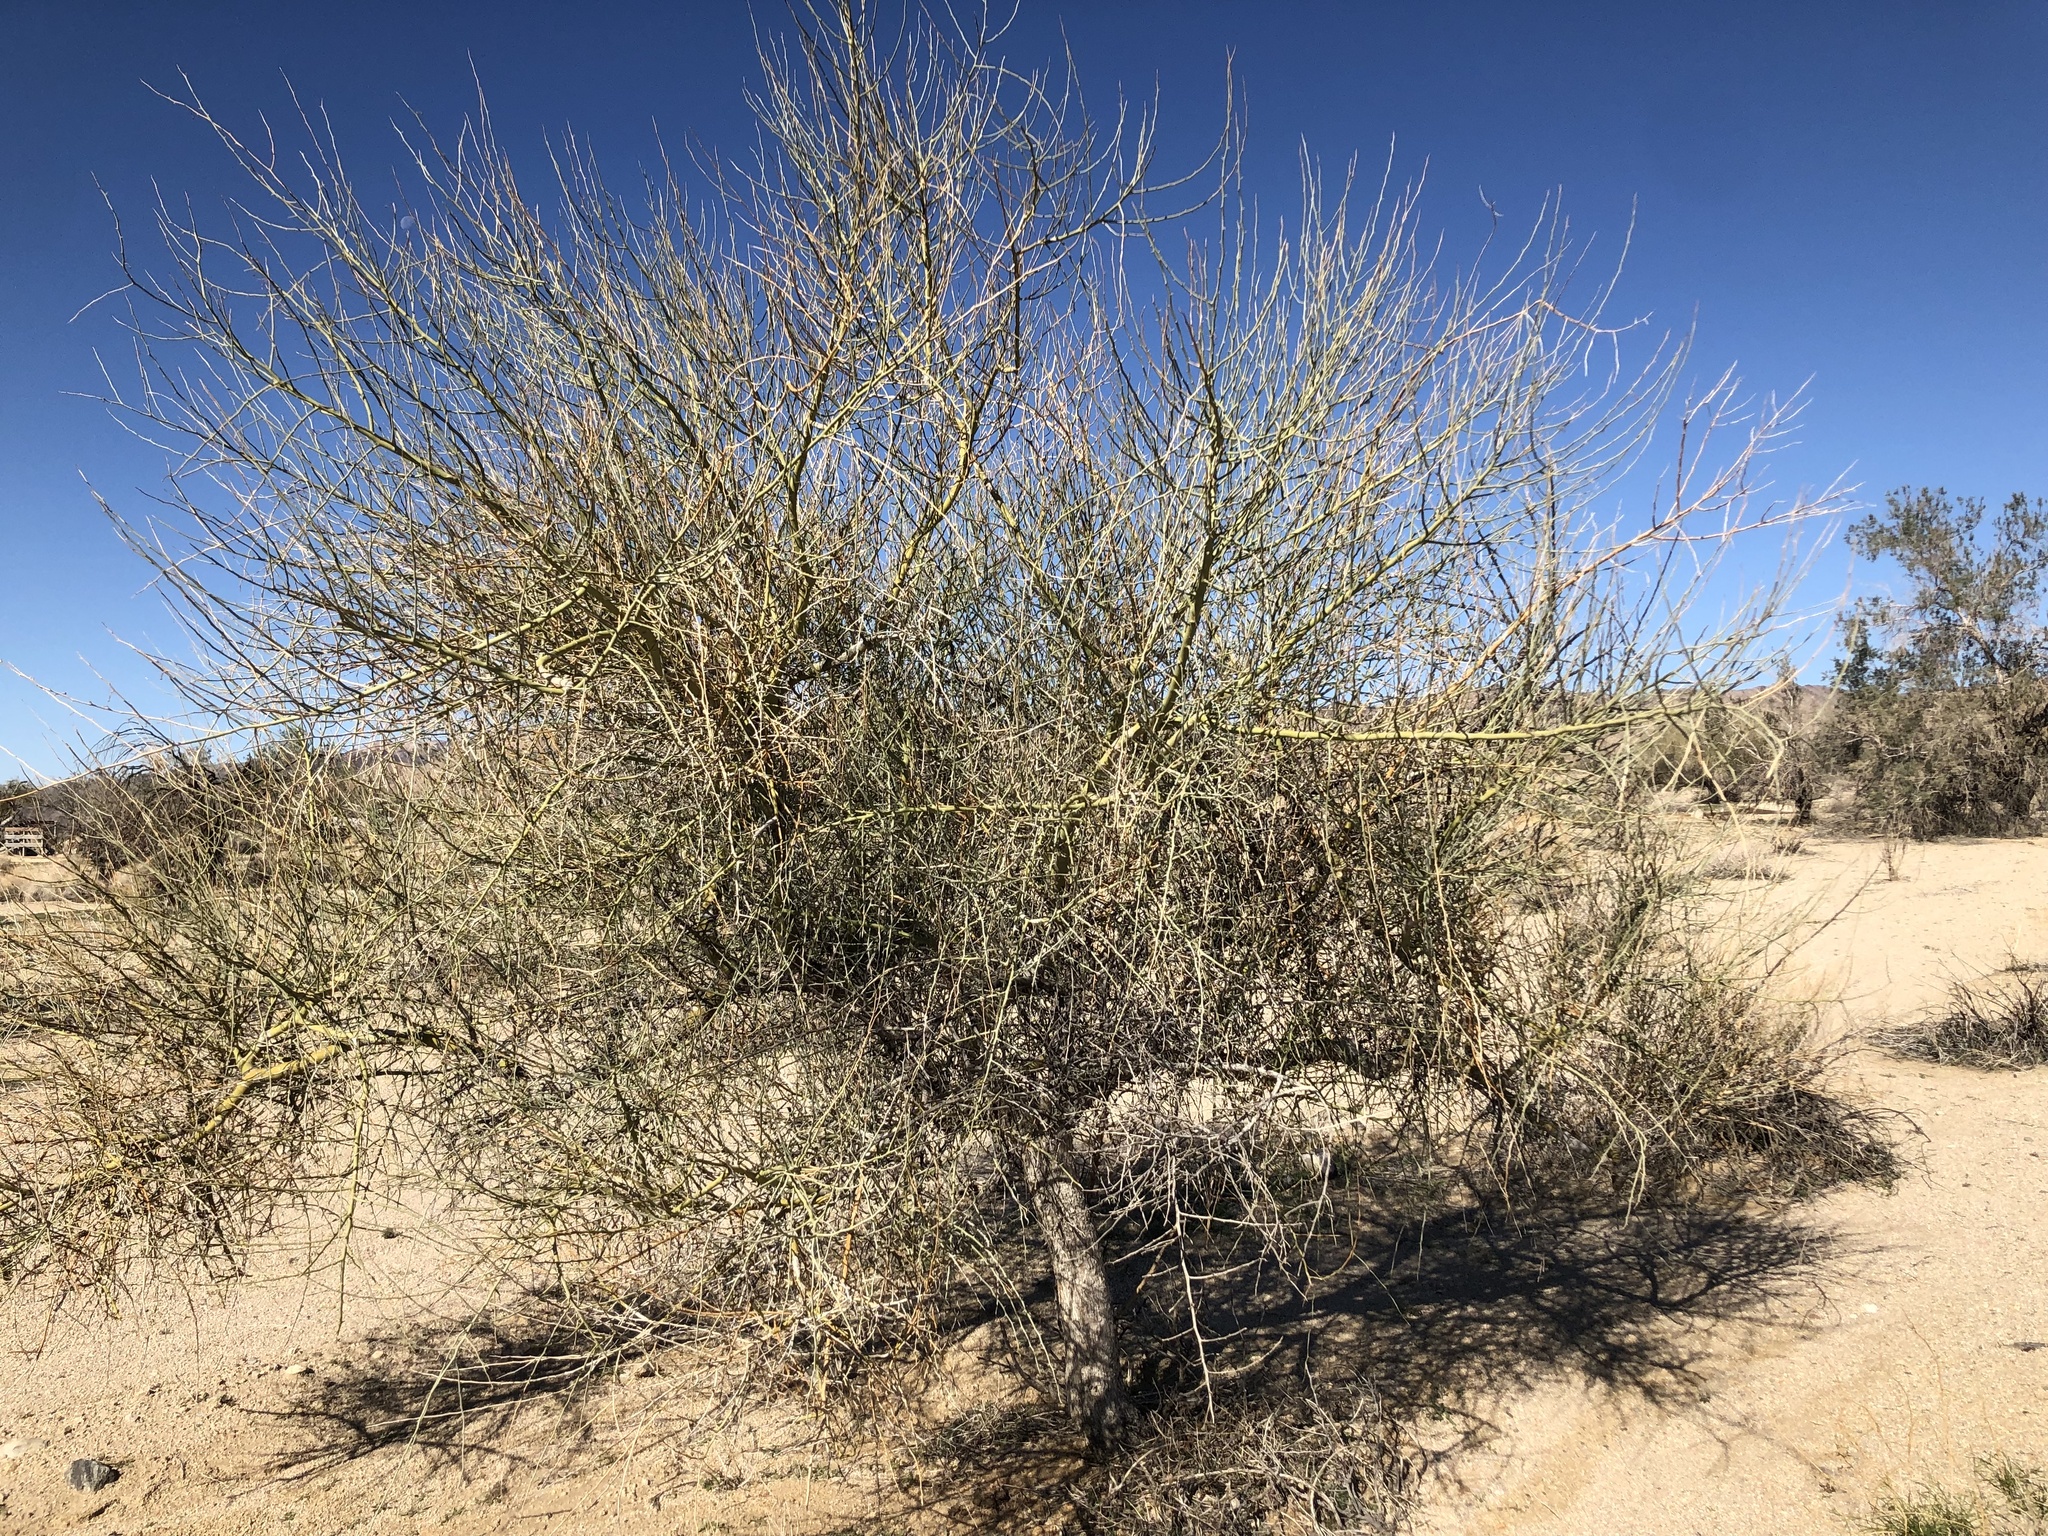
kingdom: Plantae
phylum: Tracheophyta
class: Magnoliopsida
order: Fabales
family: Fabaceae
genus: Parkinsonia
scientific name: Parkinsonia florida
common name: Blue paloverde
